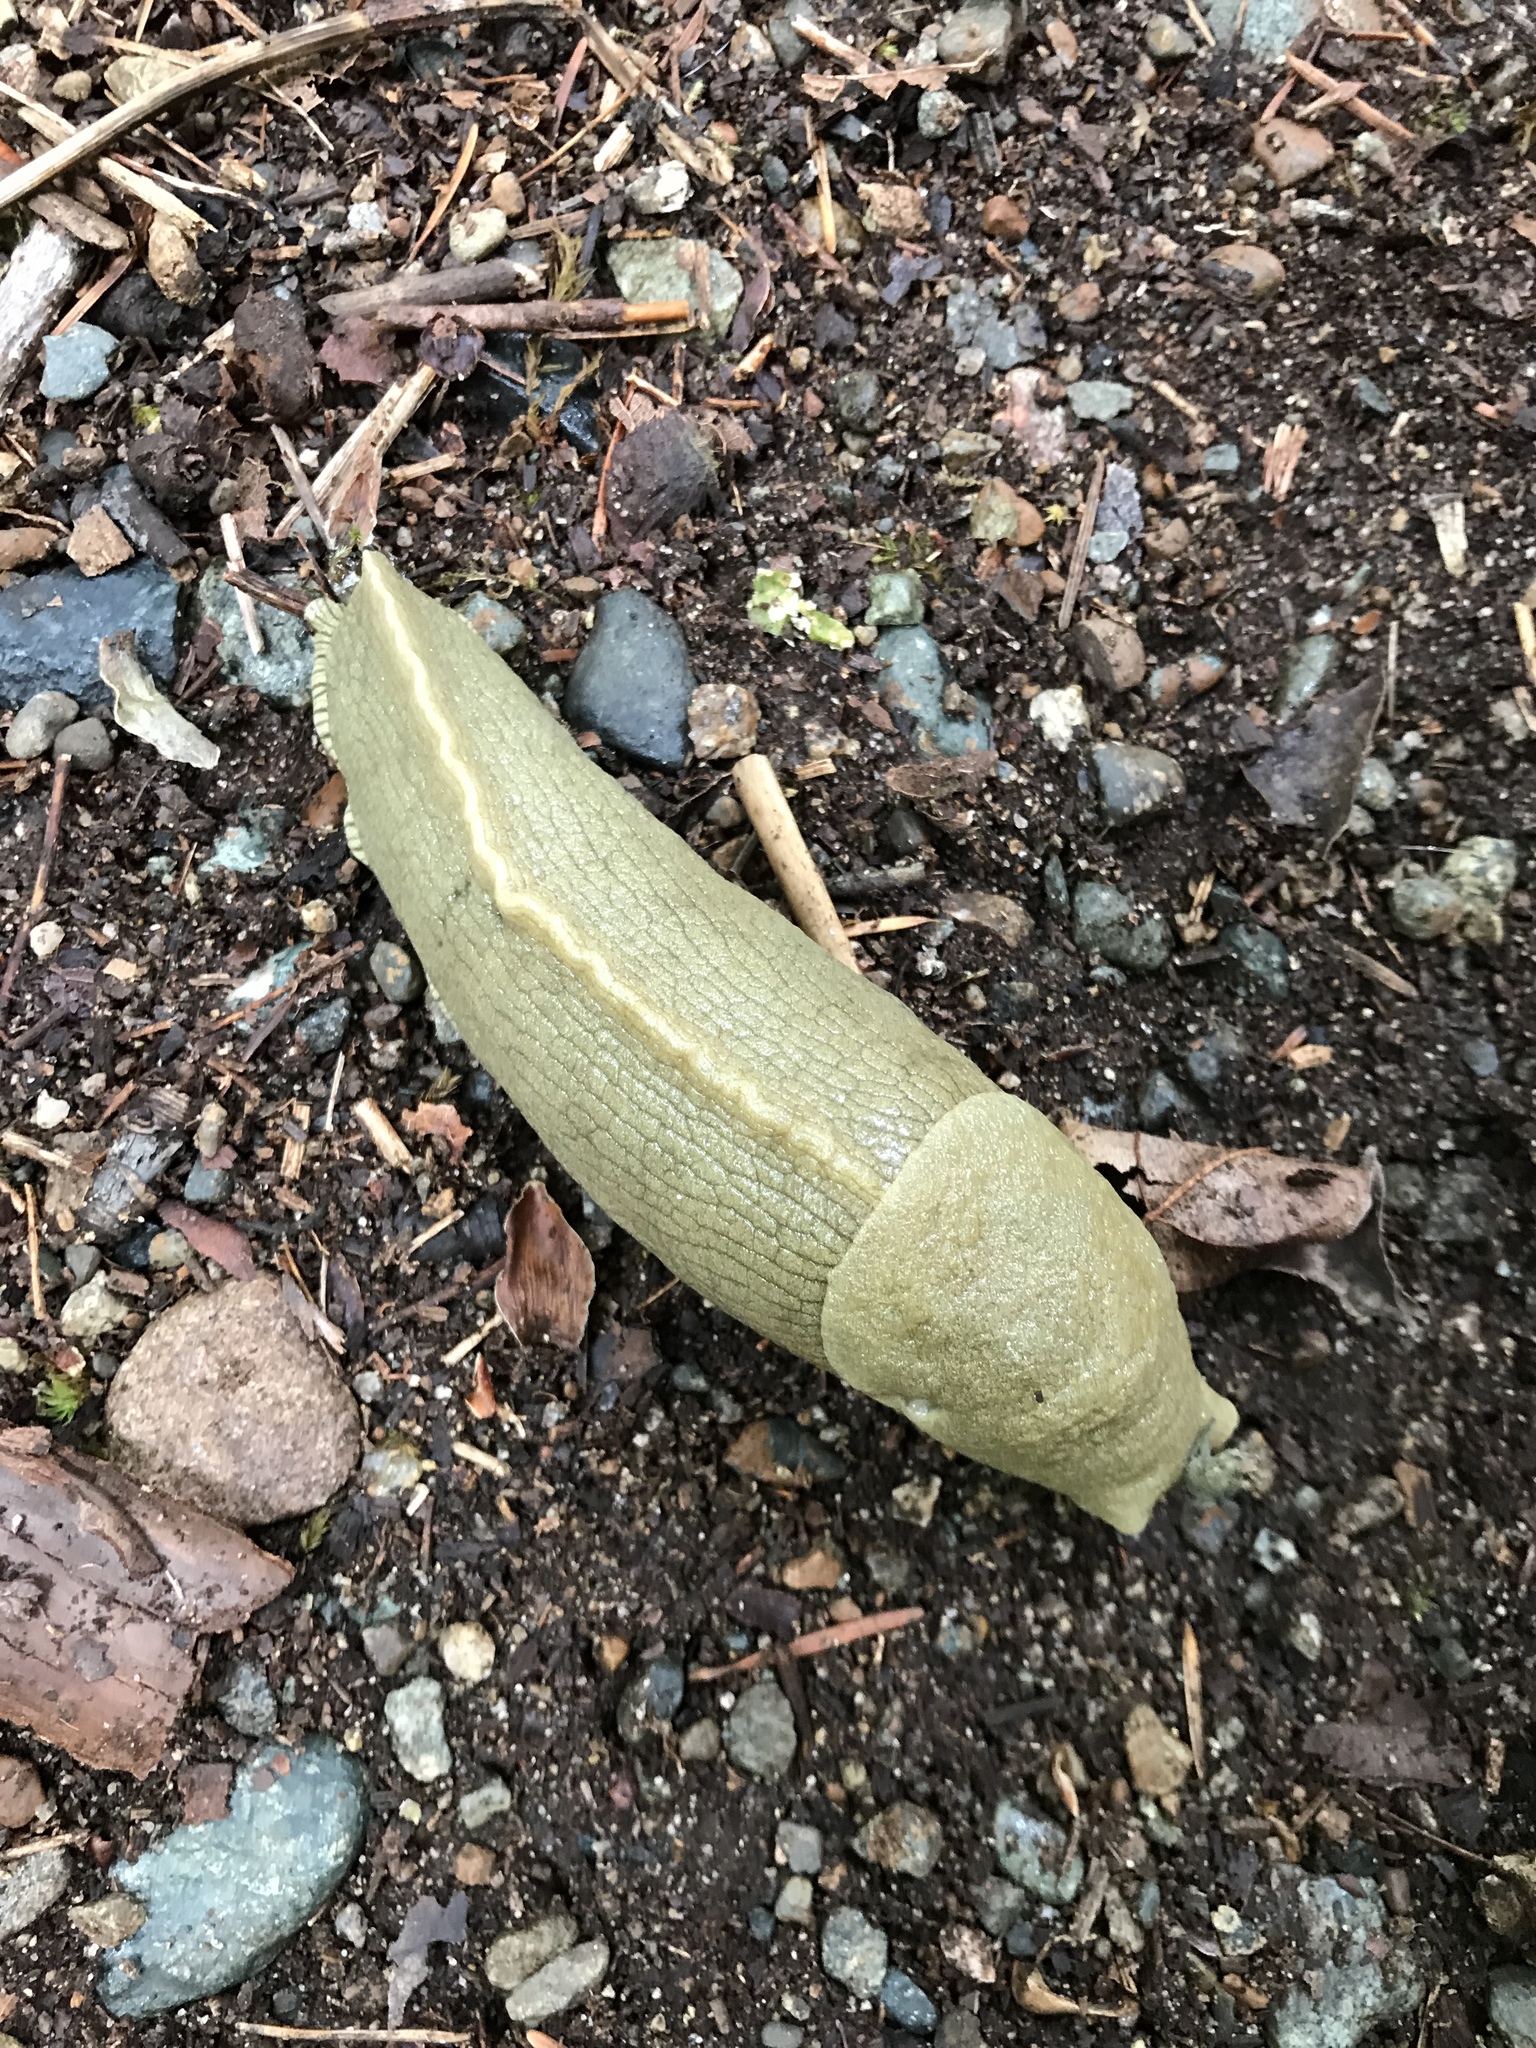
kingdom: Animalia
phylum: Mollusca
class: Gastropoda
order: Stylommatophora
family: Ariolimacidae
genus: Ariolimax
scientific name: Ariolimax columbianus
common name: Pacific banana slug
